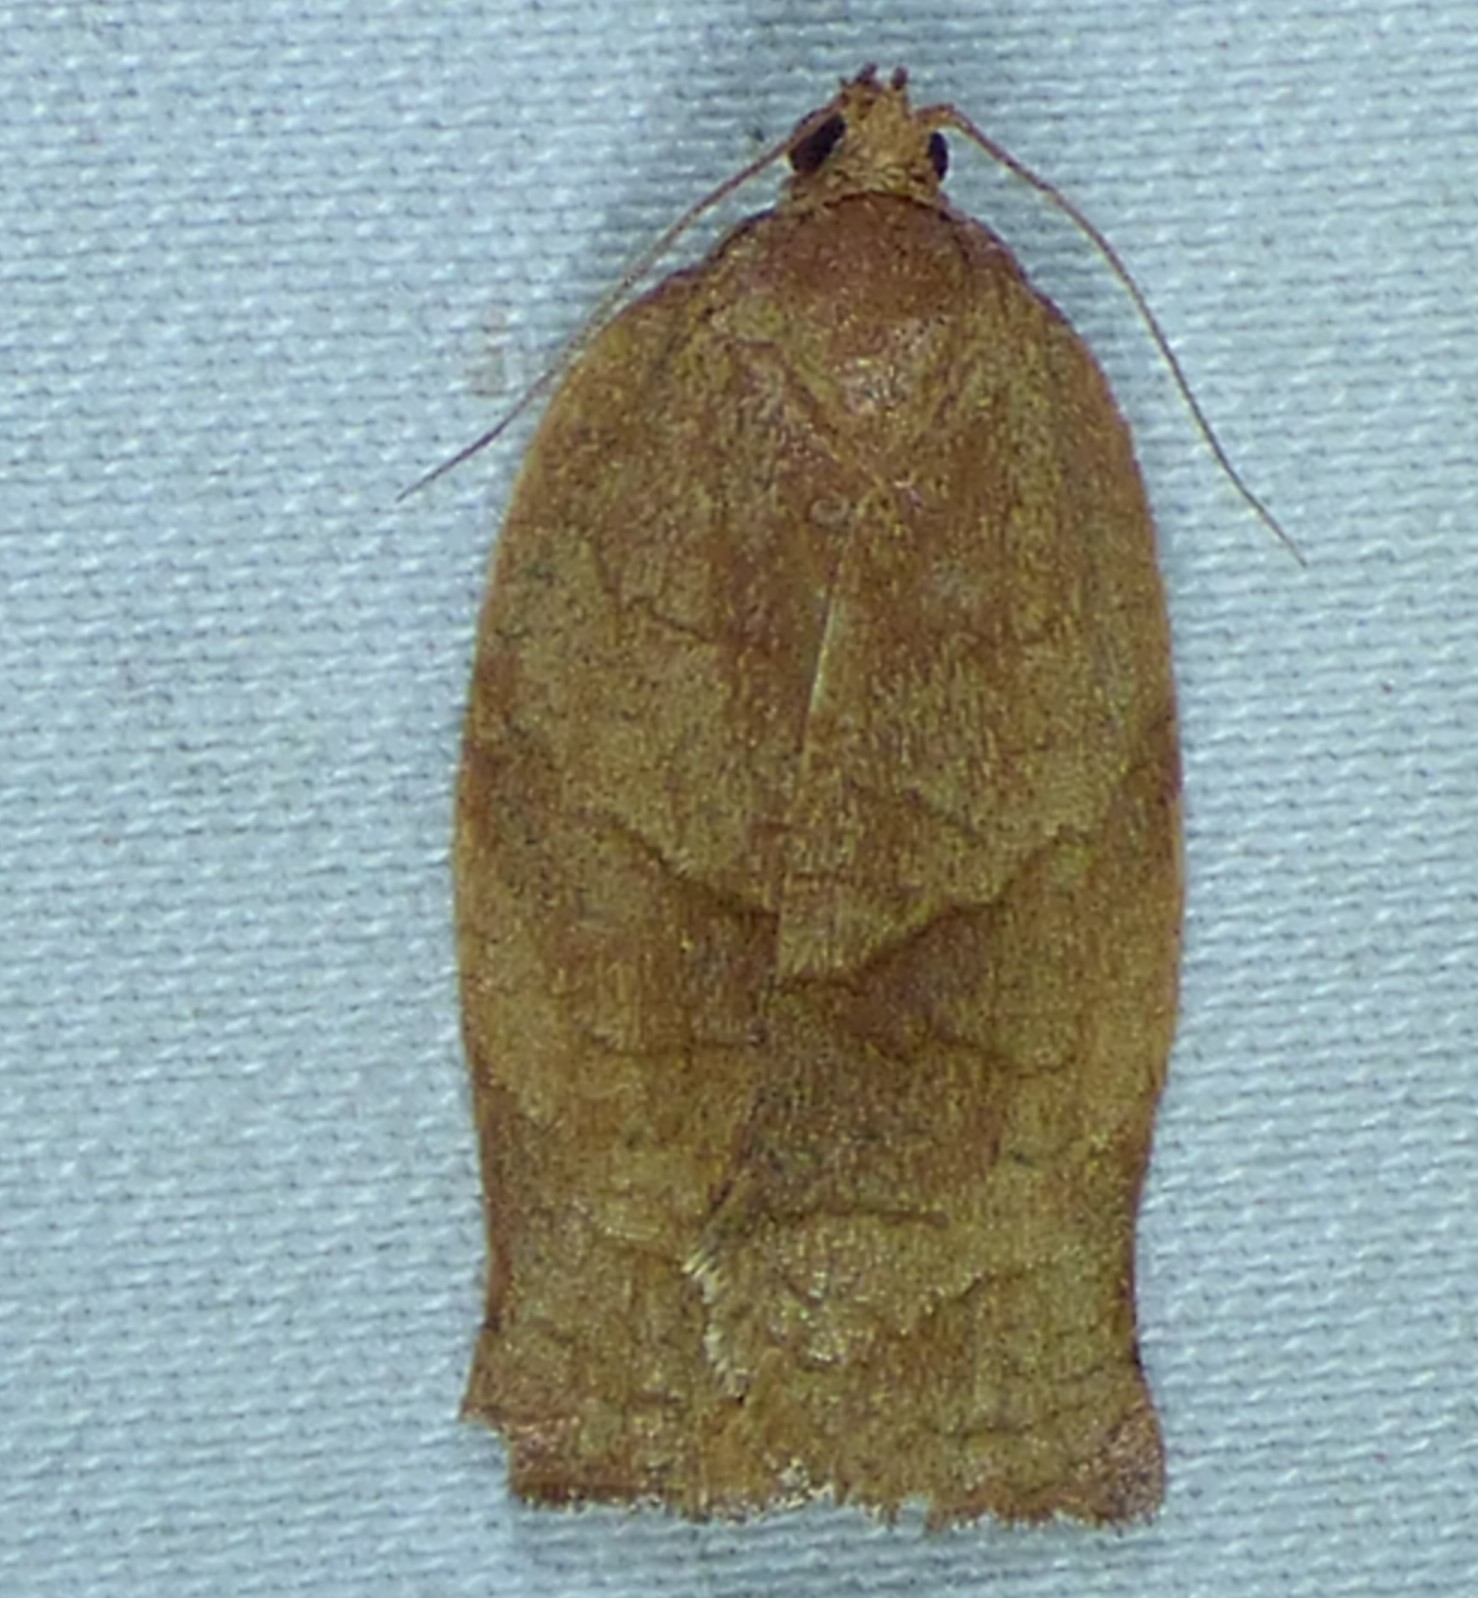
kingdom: Animalia
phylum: Arthropoda
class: Insecta
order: Lepidoptera
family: Tortricidae
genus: Choristoneura
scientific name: Choristoneura rosaceana
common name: Oblique-banded leafroller moth
